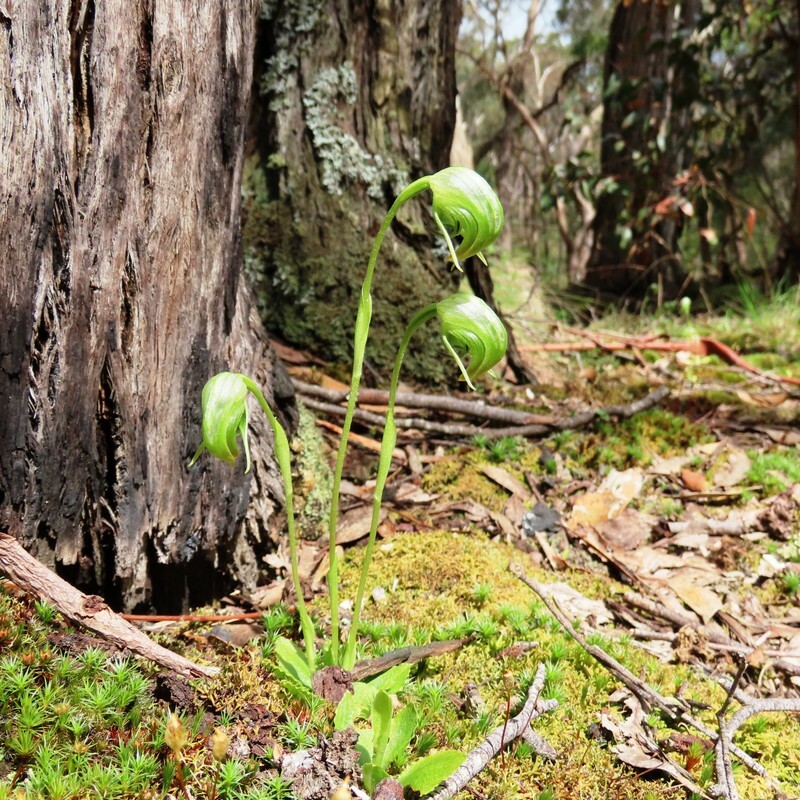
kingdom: Plantae
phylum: Tracheophyta
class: Liliopsida
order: Asparagales
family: Orchidaceae
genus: Pterostylis
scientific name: Pterostylis nutans
